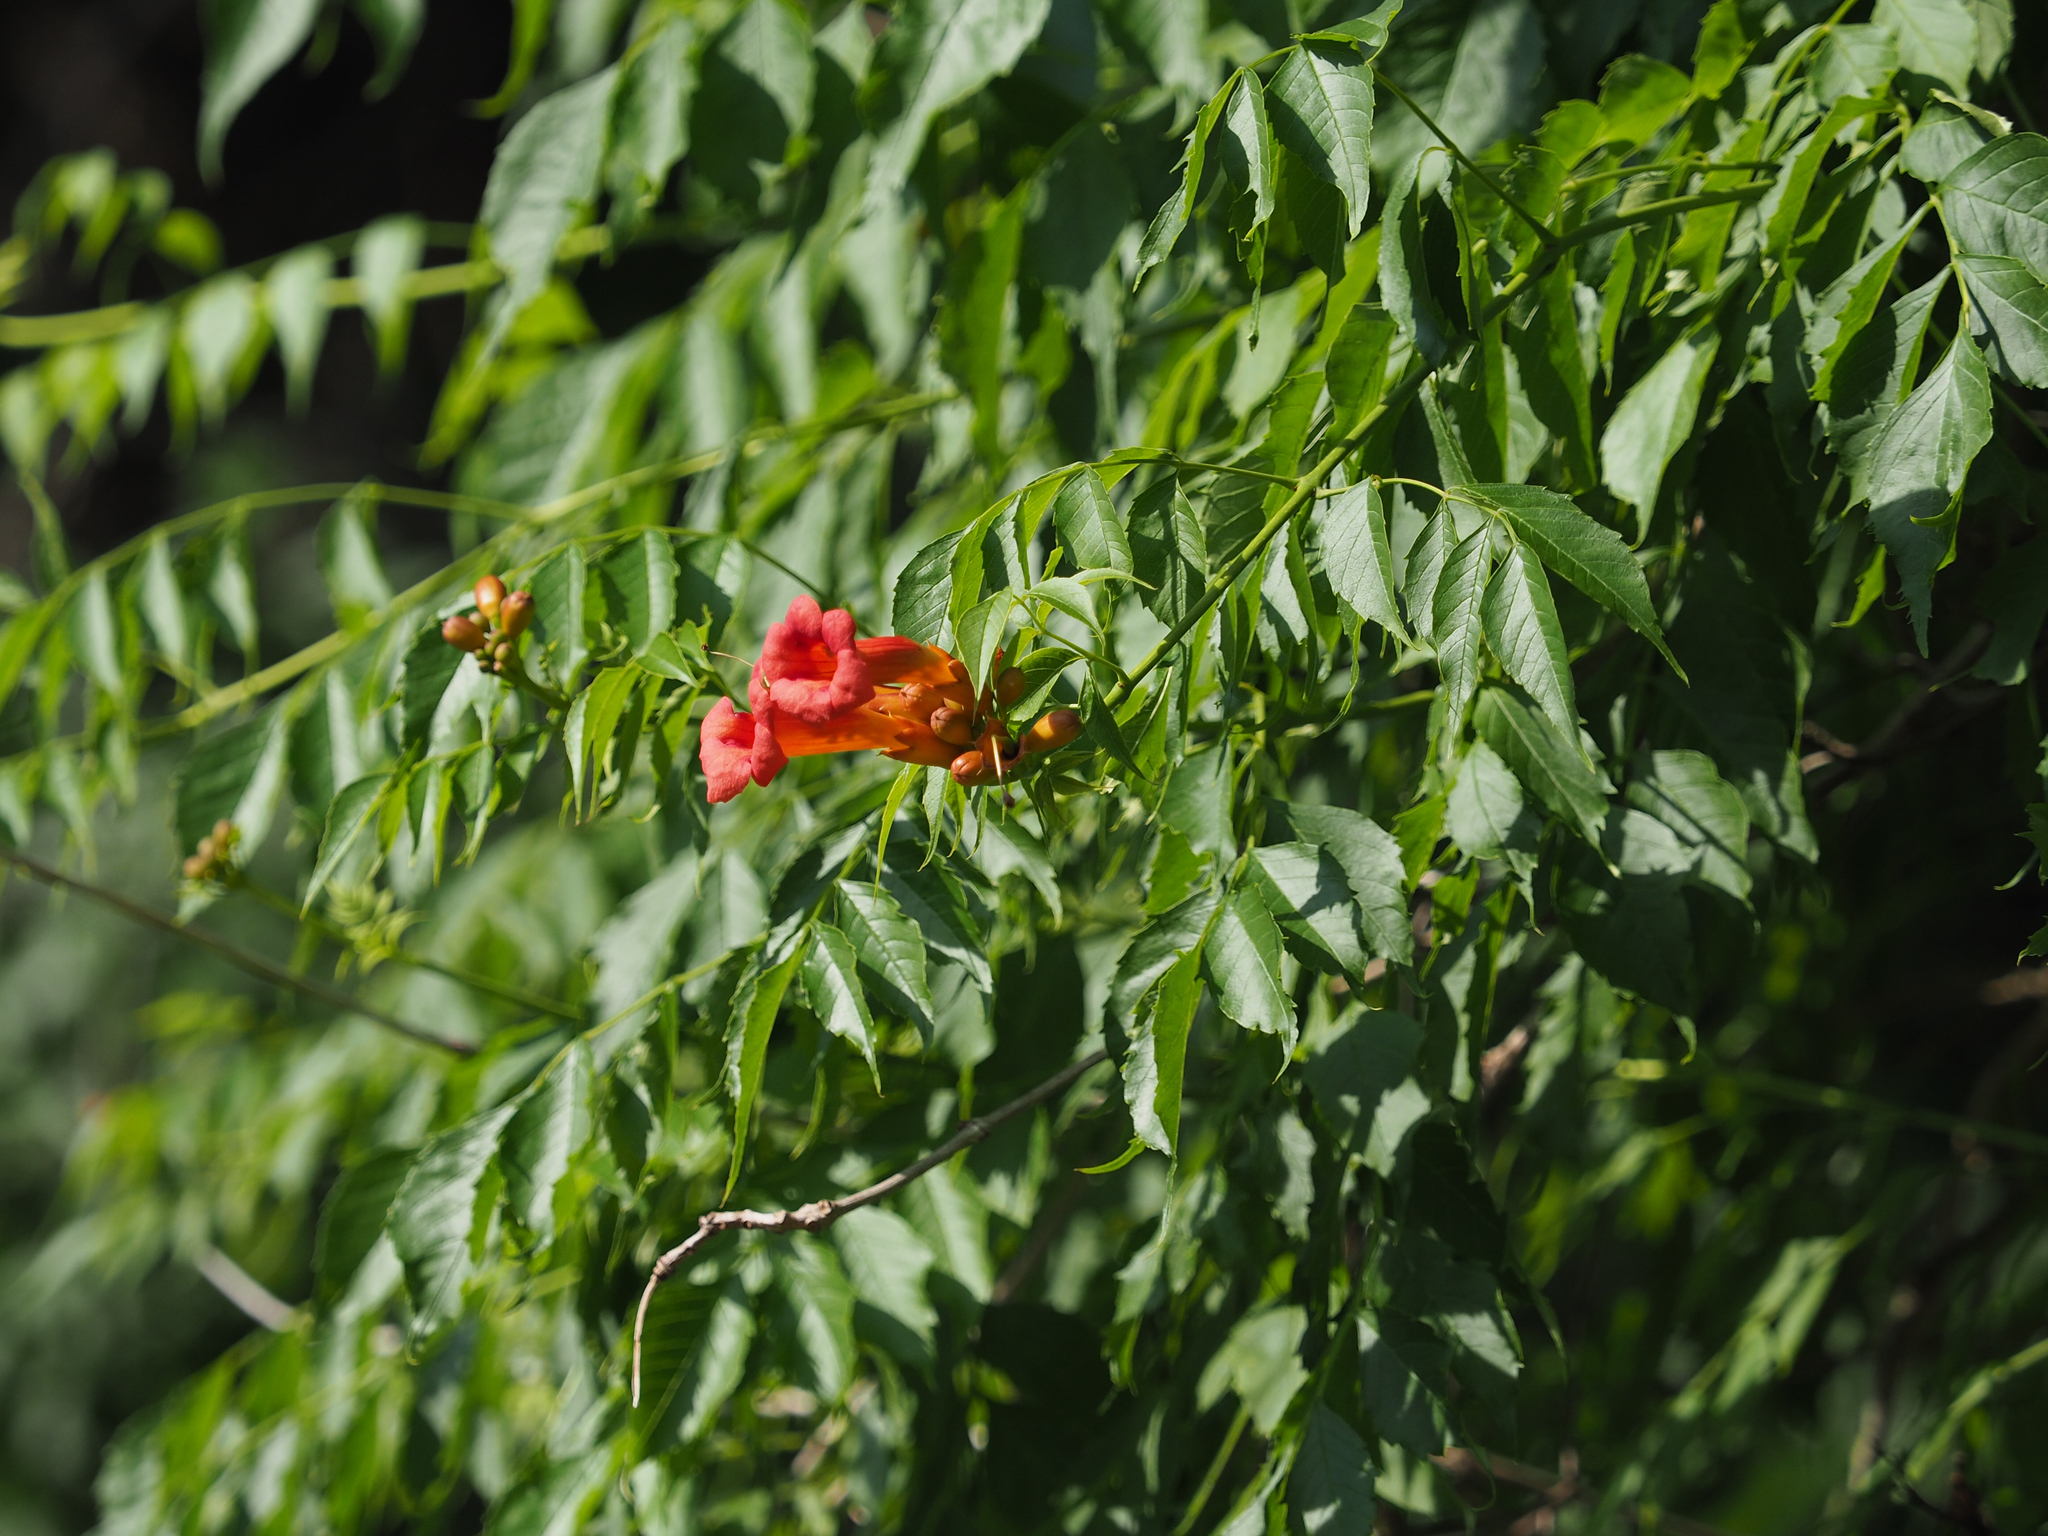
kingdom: Plantae
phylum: Tracheophyta
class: Magnoliopsida
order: Lamiales
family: Bignoniaceae
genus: Campsis
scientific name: Campsis radicans
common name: Trumpet-creeper
